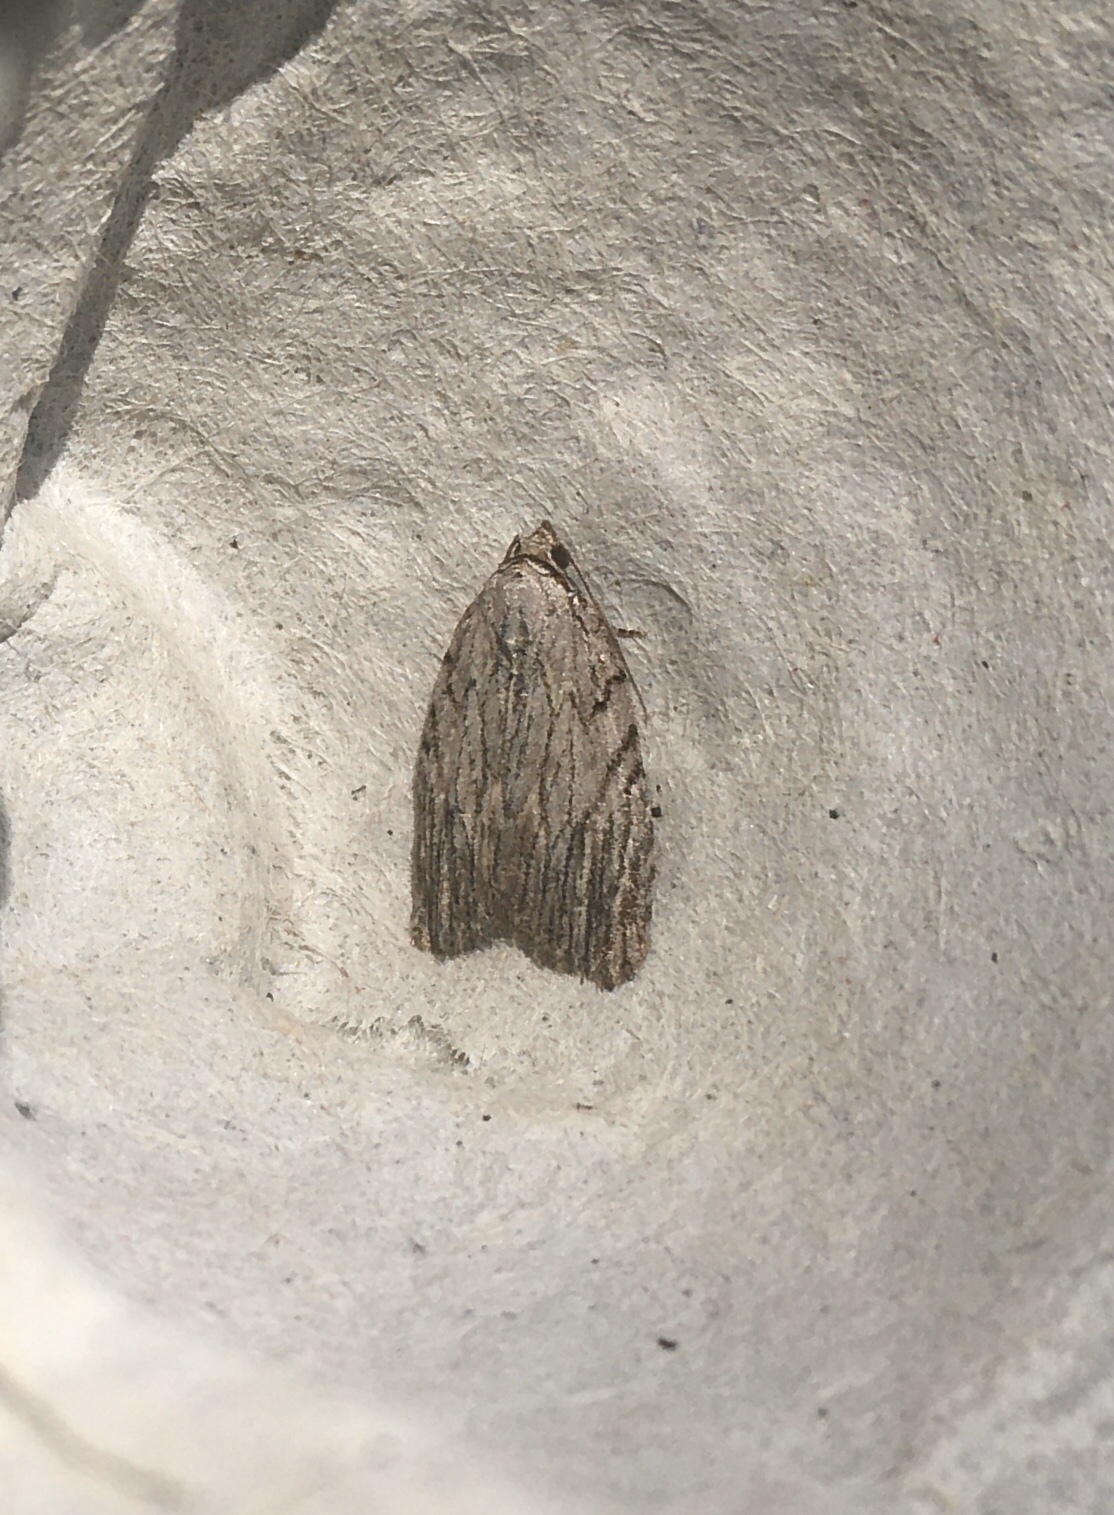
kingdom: Animalia
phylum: Arthropoda
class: Insecta
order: Lepidoptera
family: Noctuidae
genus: Balsa
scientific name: Balsa tristrigella
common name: Three-lined balsa moth
